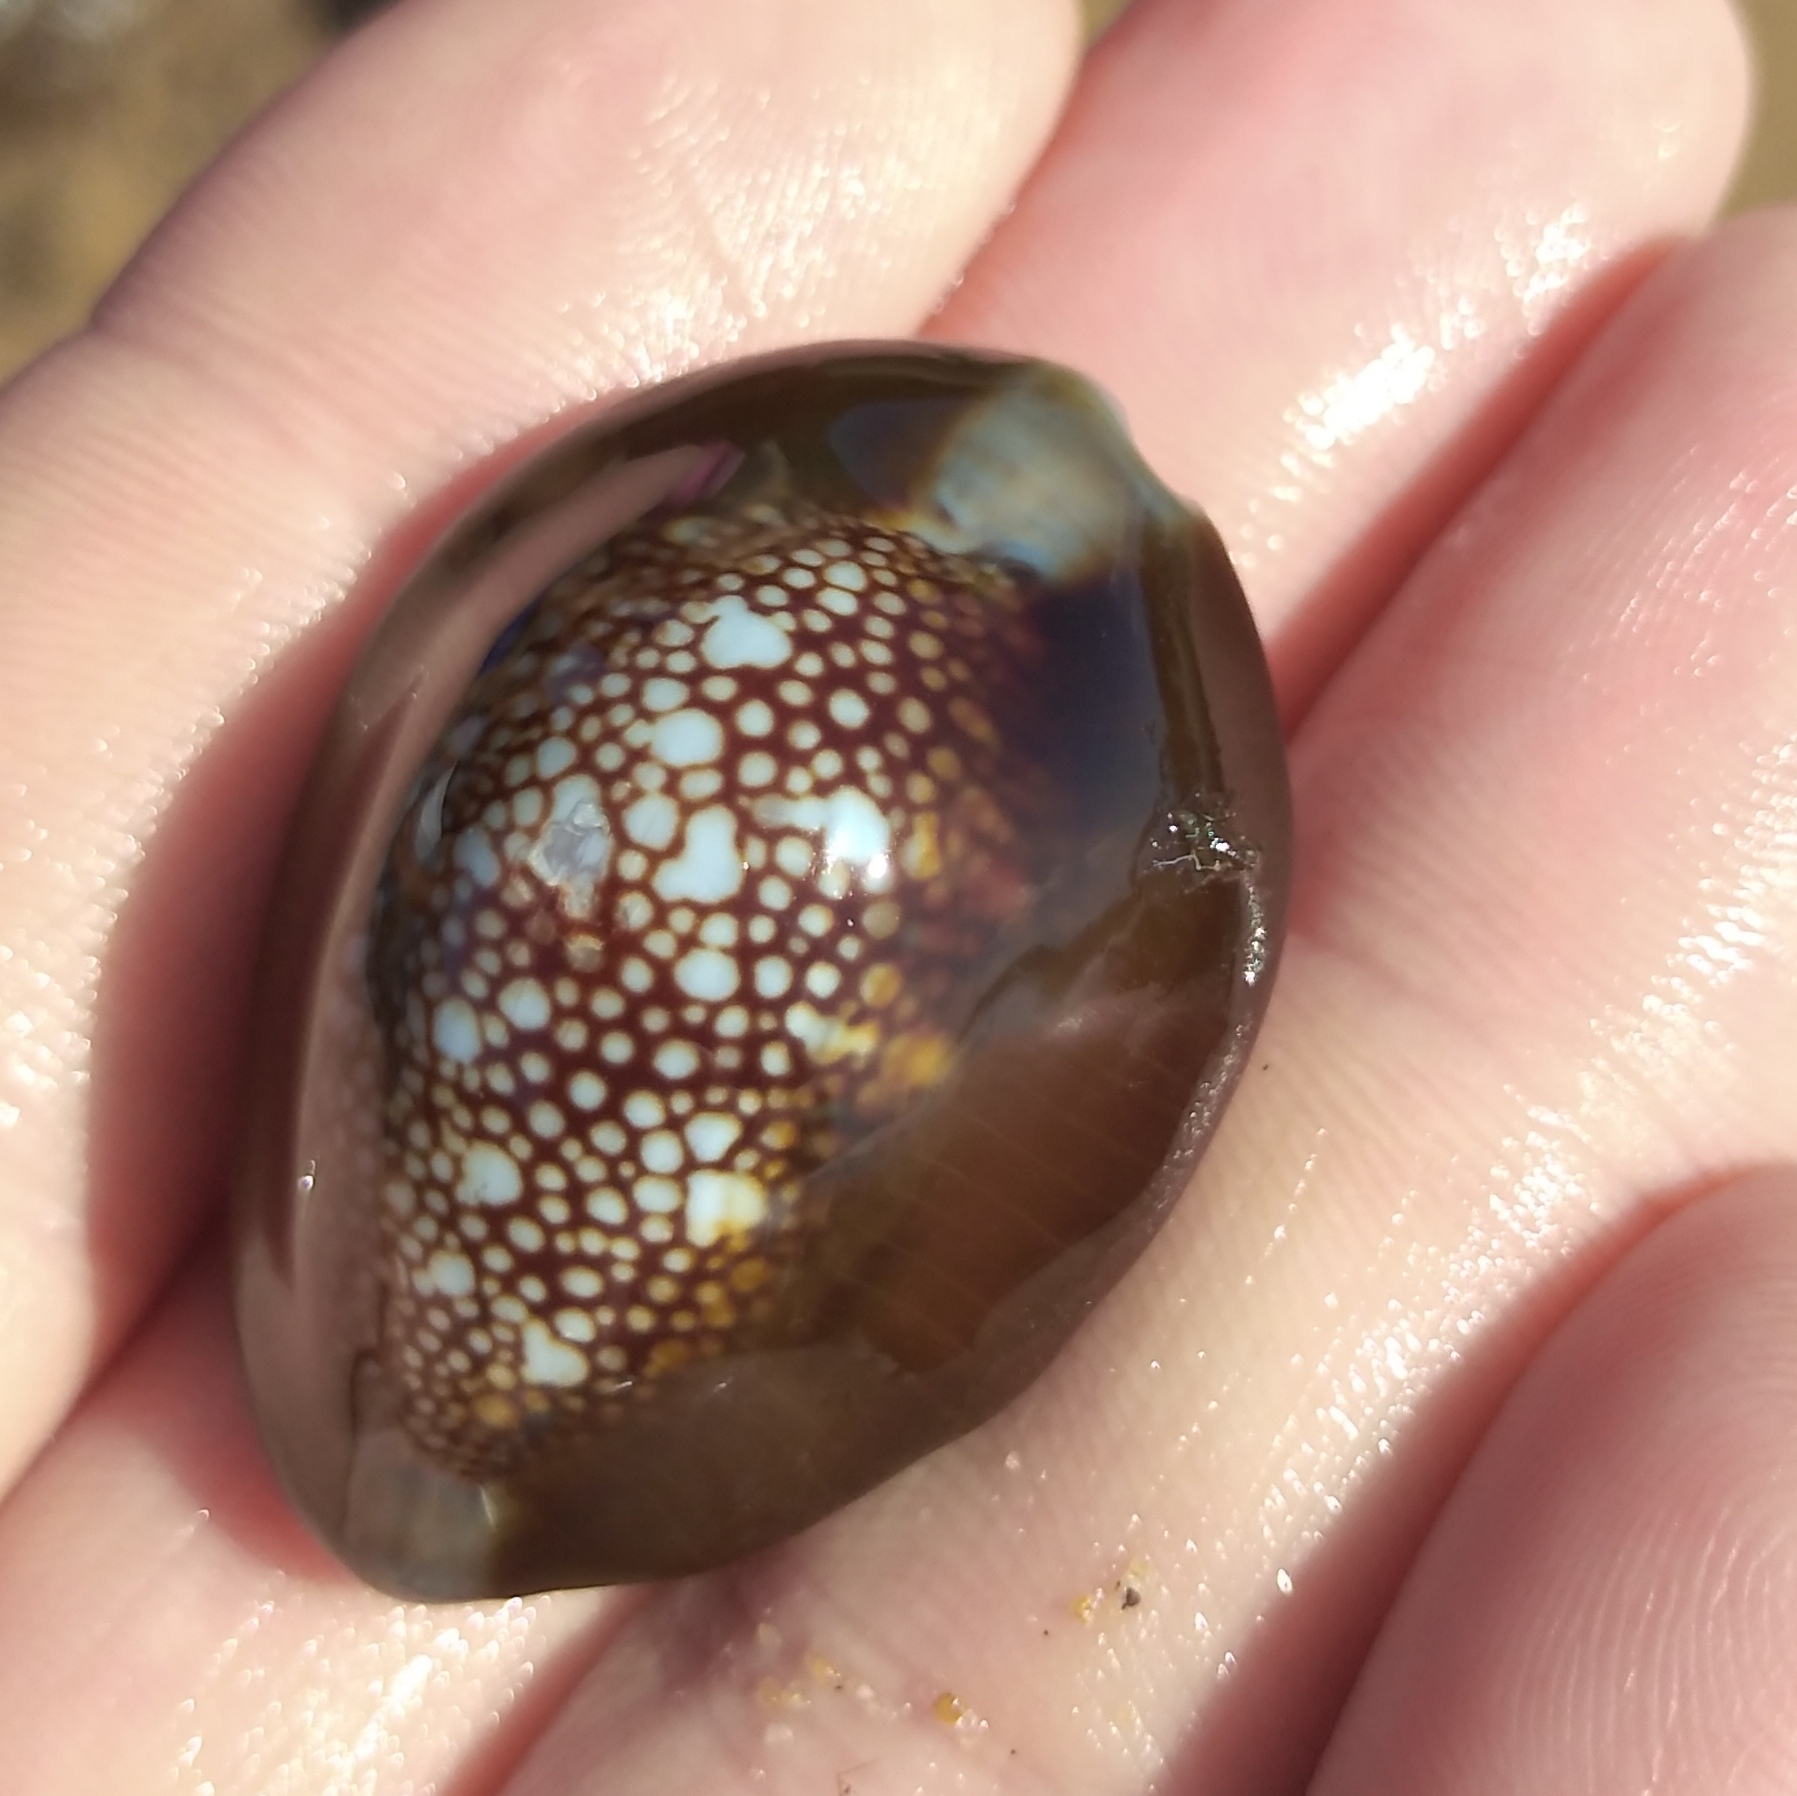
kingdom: Animalia
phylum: Mollusca
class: Gastropoda
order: Littorinimorpha
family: Cypraeidae
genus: Monetaria
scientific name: Monetaria caputserpentis
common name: Serpent's head cowrie
